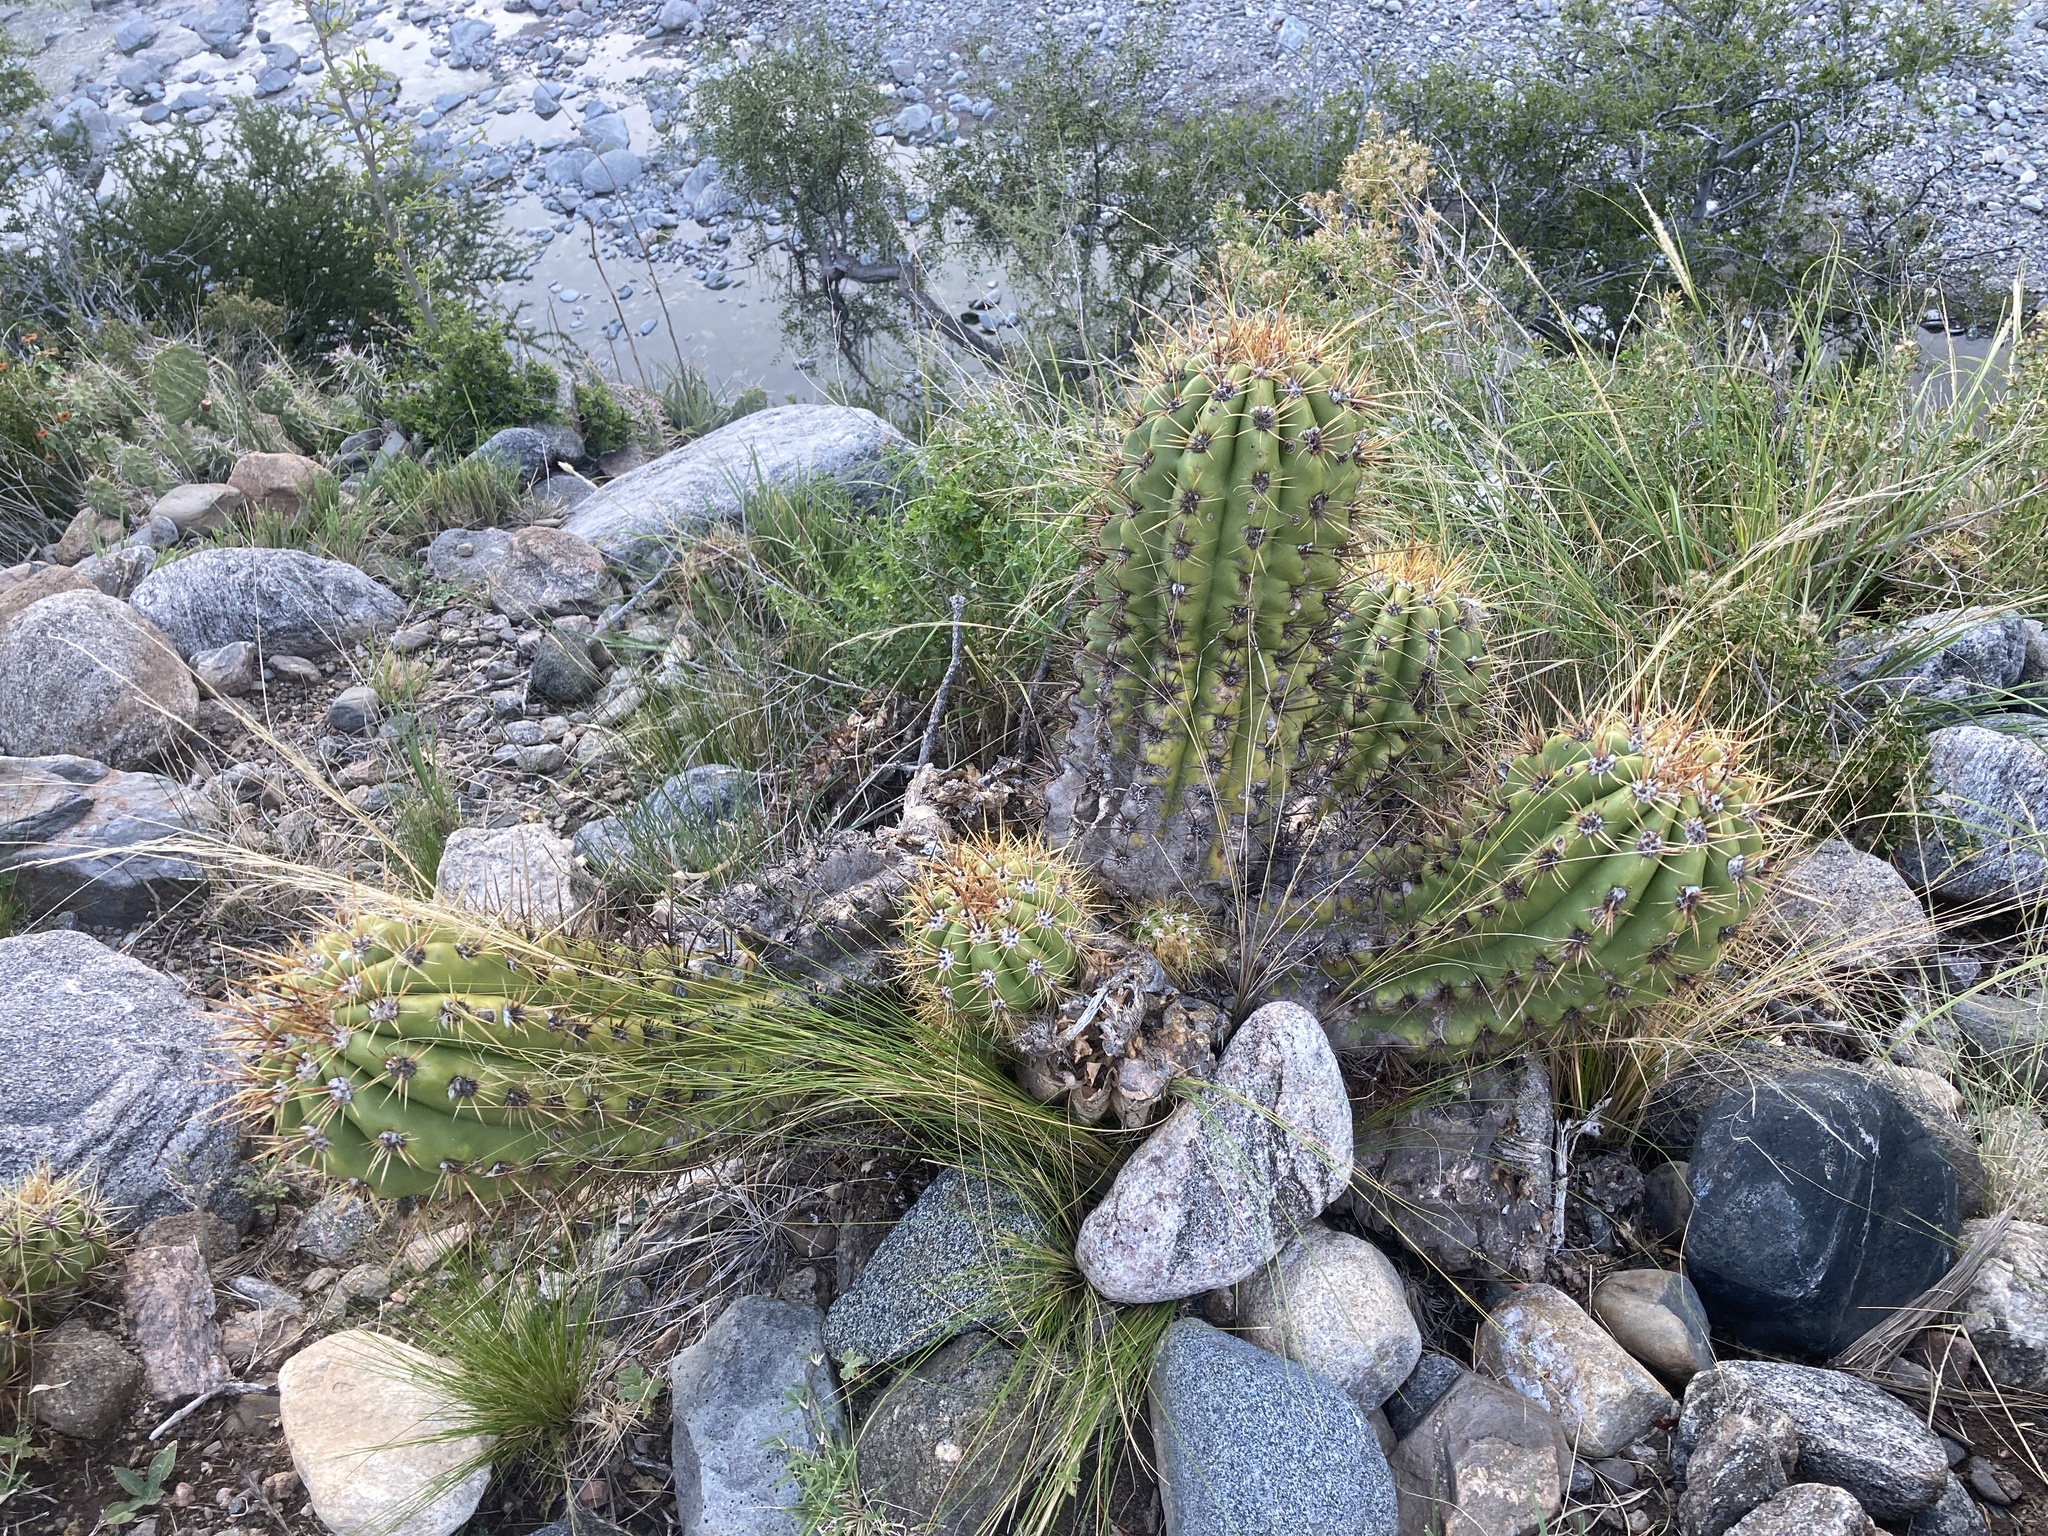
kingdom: Plantae
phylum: Tracheophyta
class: Magnoliopsida
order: Caryophyllales
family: Cactaceae
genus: Soehrensia
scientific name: Soehrensia candicans
